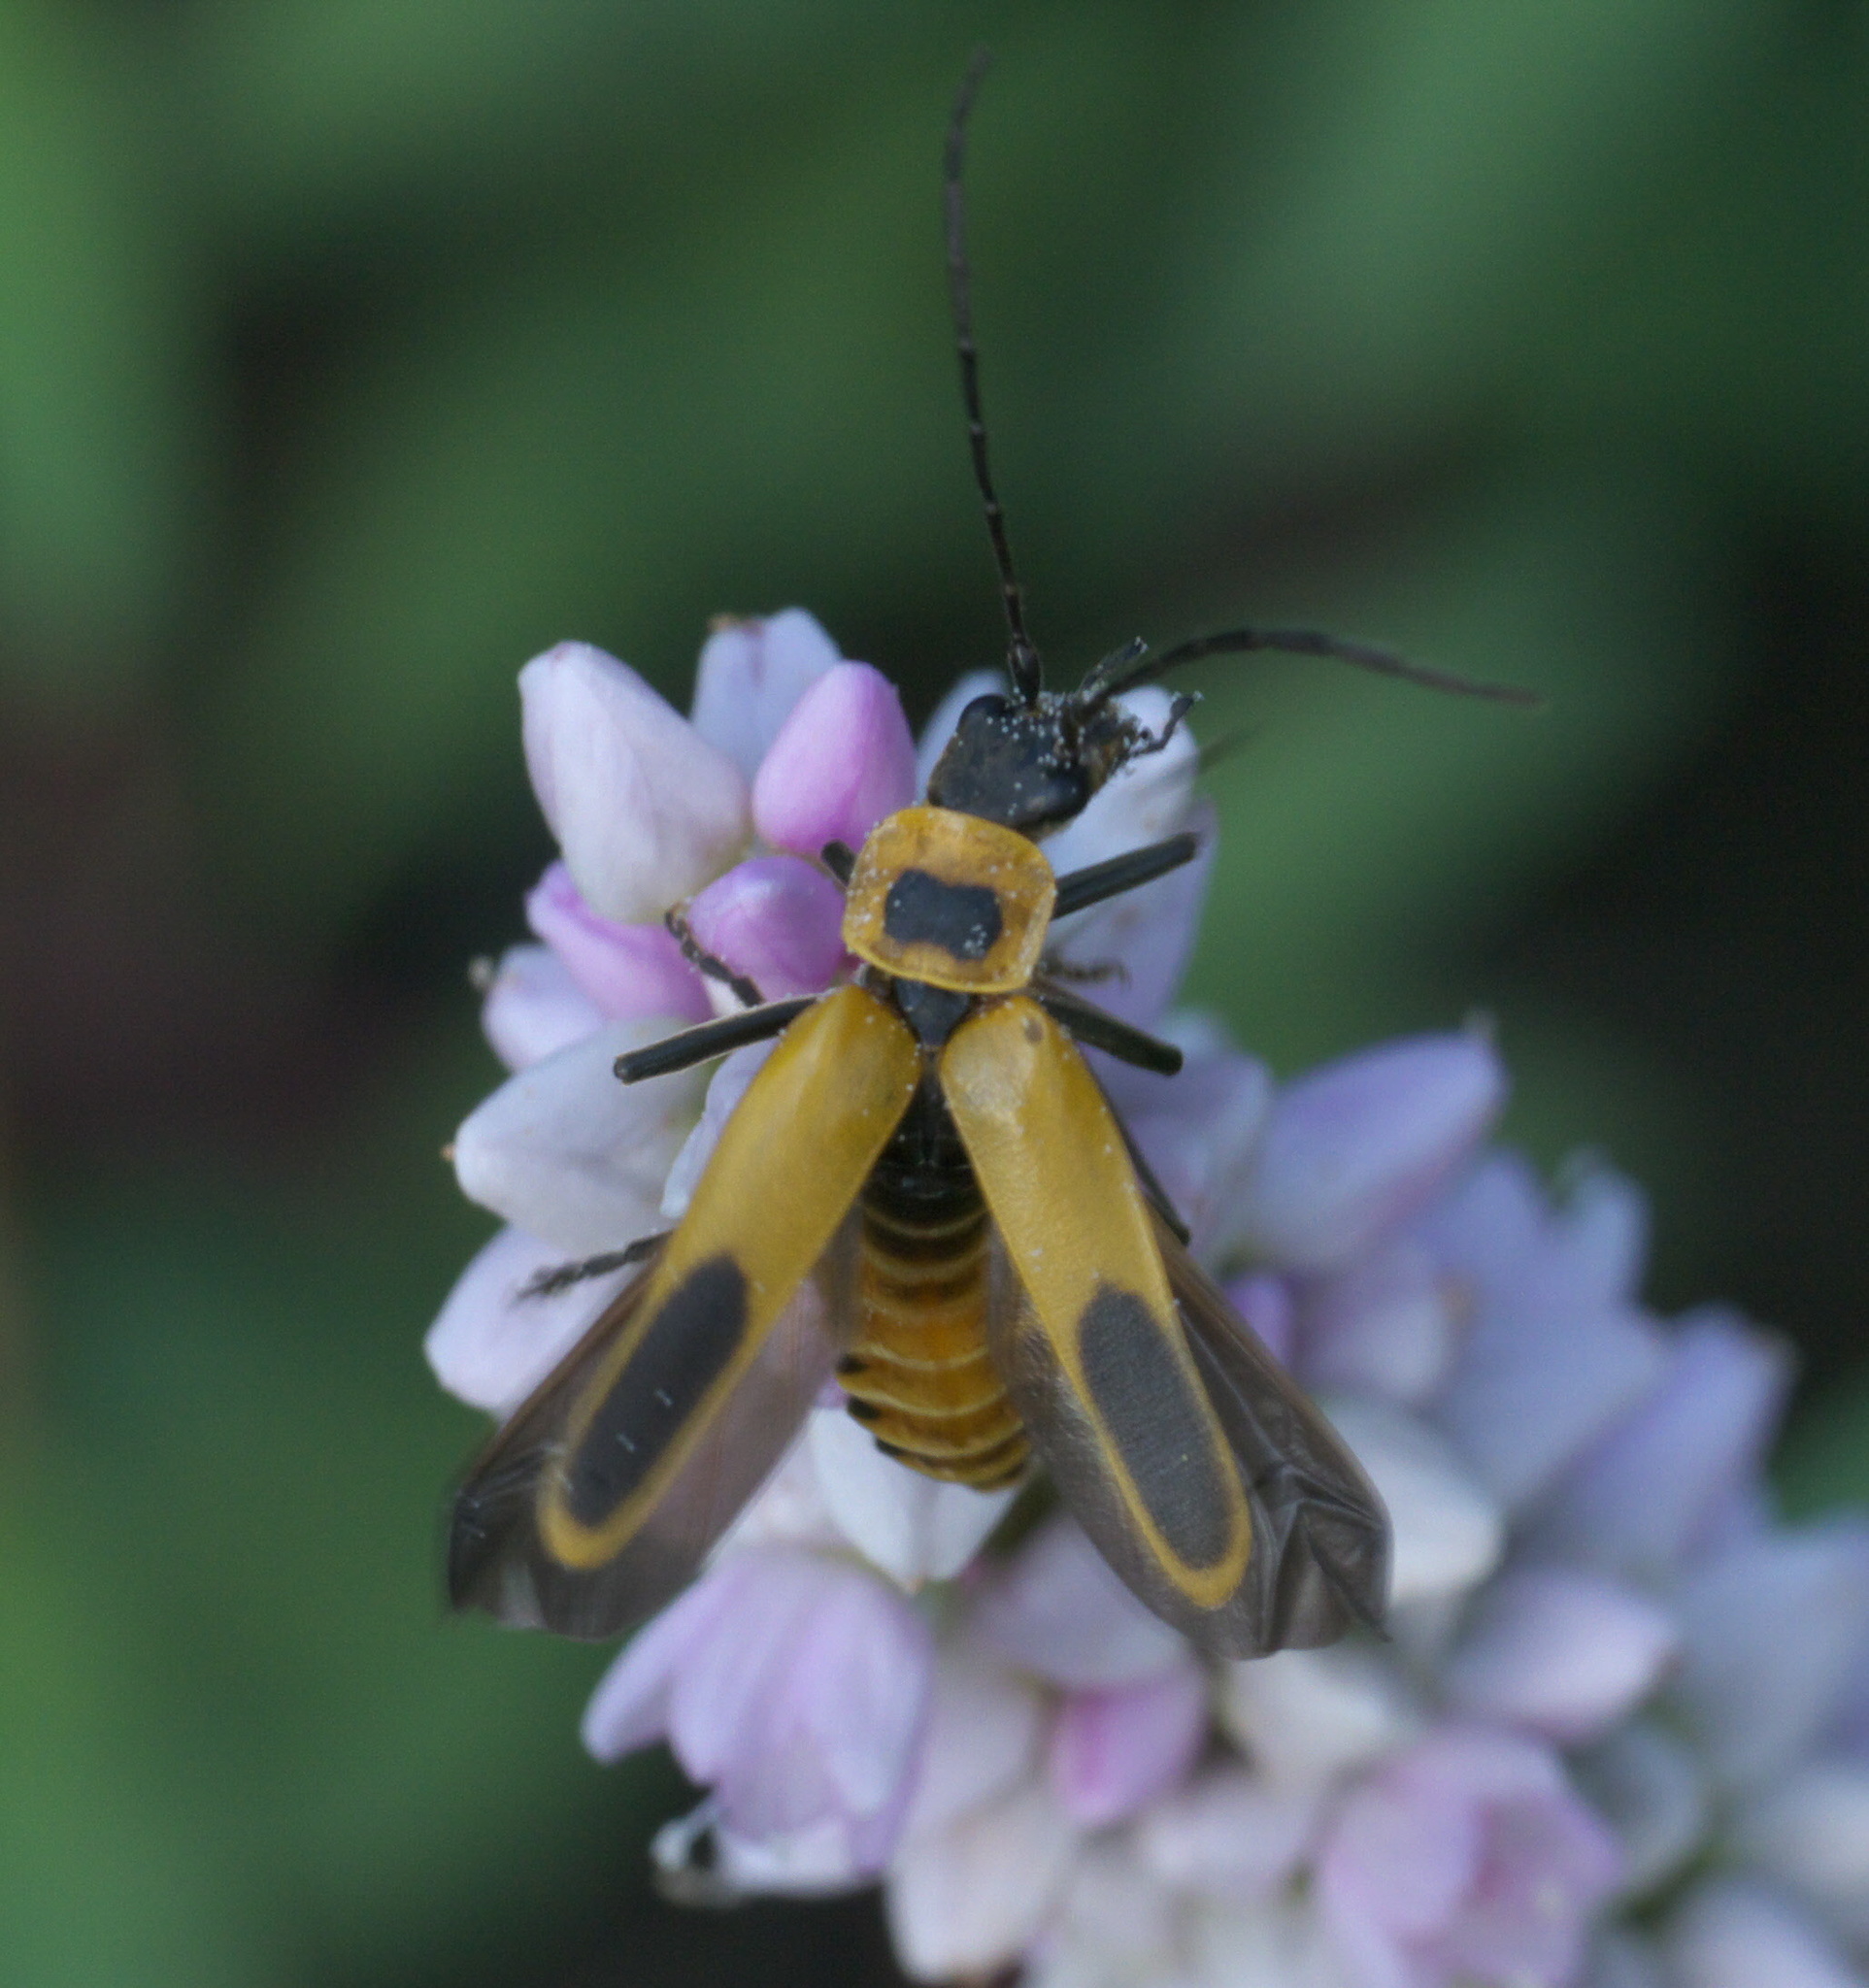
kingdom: Animalia
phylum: Arthropoda
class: Insecta
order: Coleoptera
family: Cantharidae
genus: Chauliognathus
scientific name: Chauliognathus pensylvanicus
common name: Goldenrod soldier beetle
